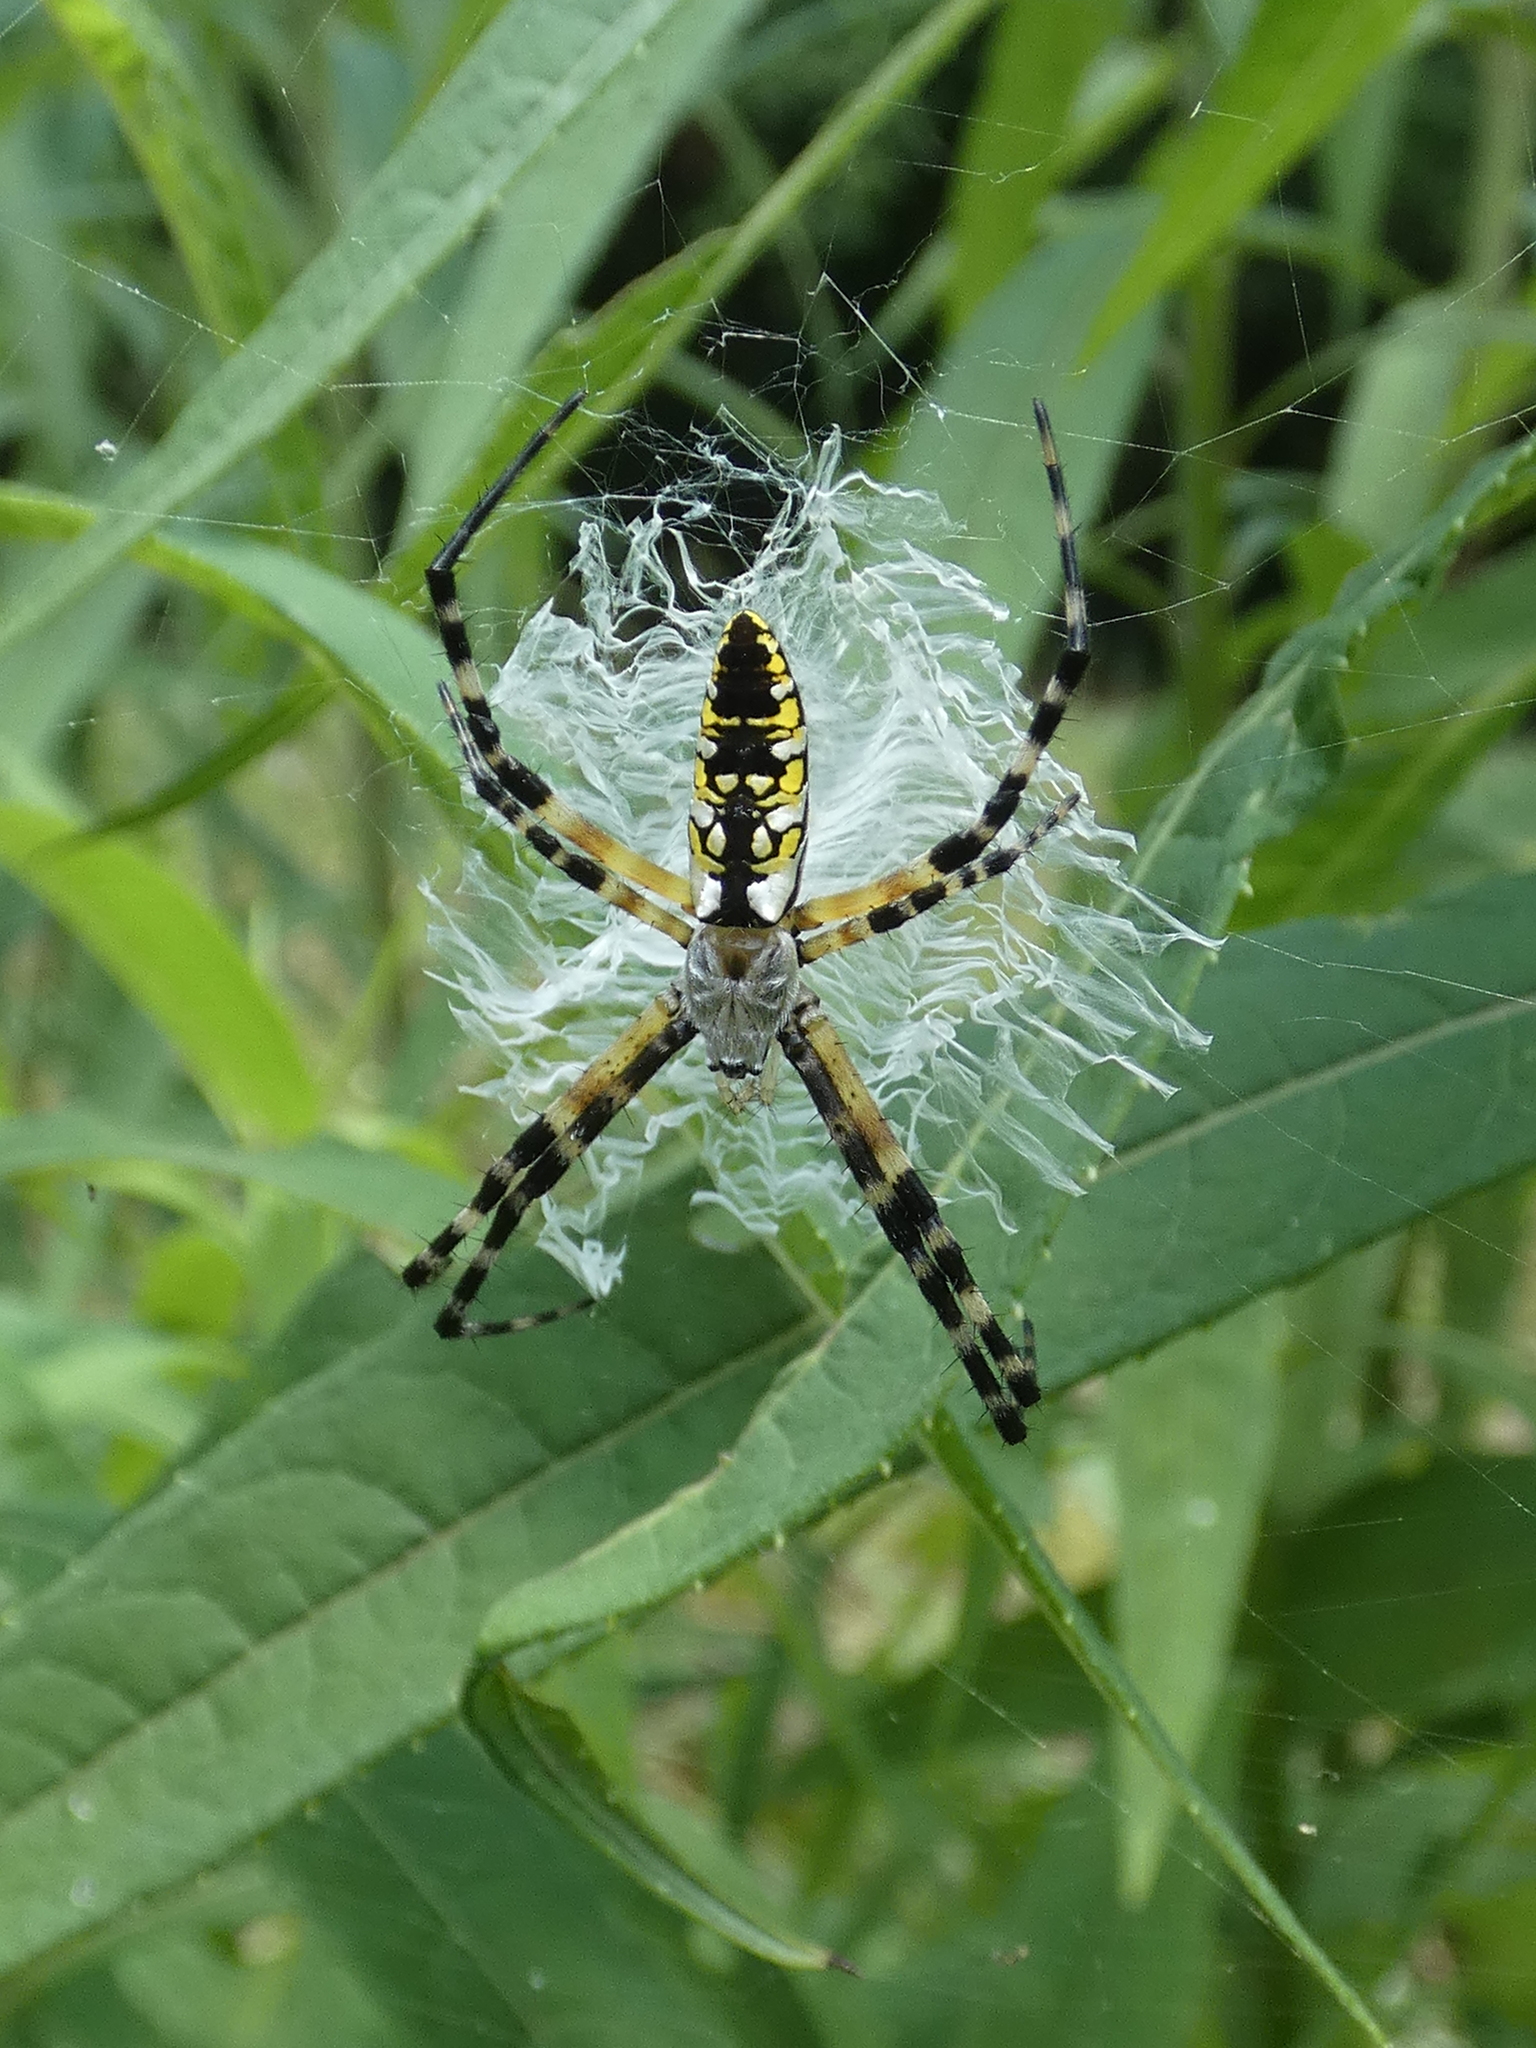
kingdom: Animalia
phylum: Arthropoda
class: Arachnida
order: Araneae
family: Araneidae
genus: Argiope
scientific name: Argiope aurantia
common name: Orb weavers
